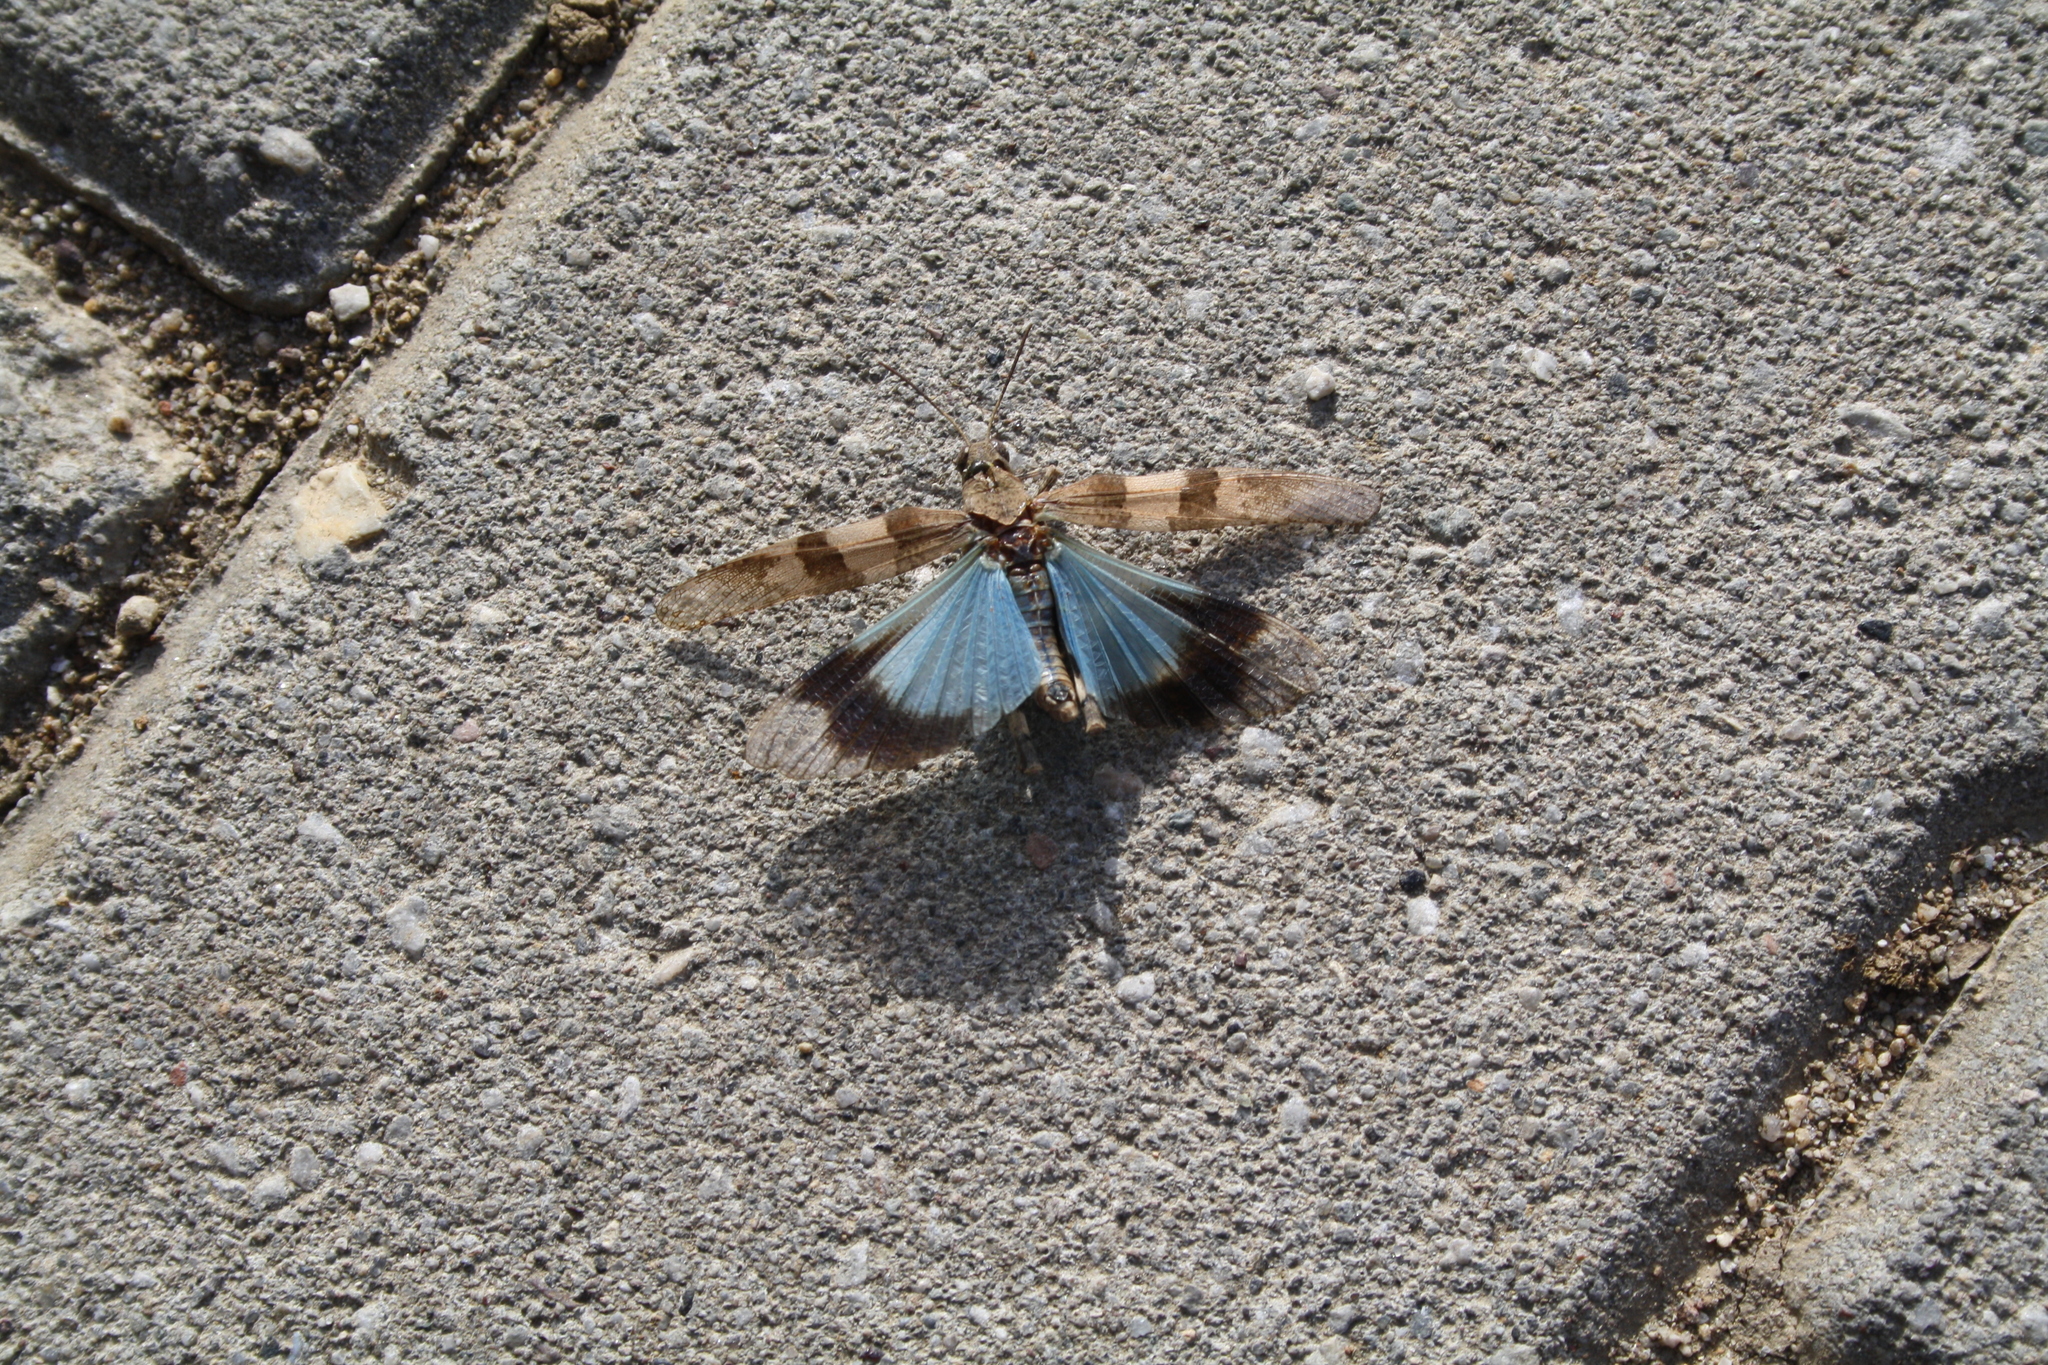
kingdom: Animalia
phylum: Arthropoda
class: Insecta
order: Orthoptera
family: Acrididae
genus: Oedipoda
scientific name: Oedipoda caerulescens
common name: Blue-winged grasshopper
